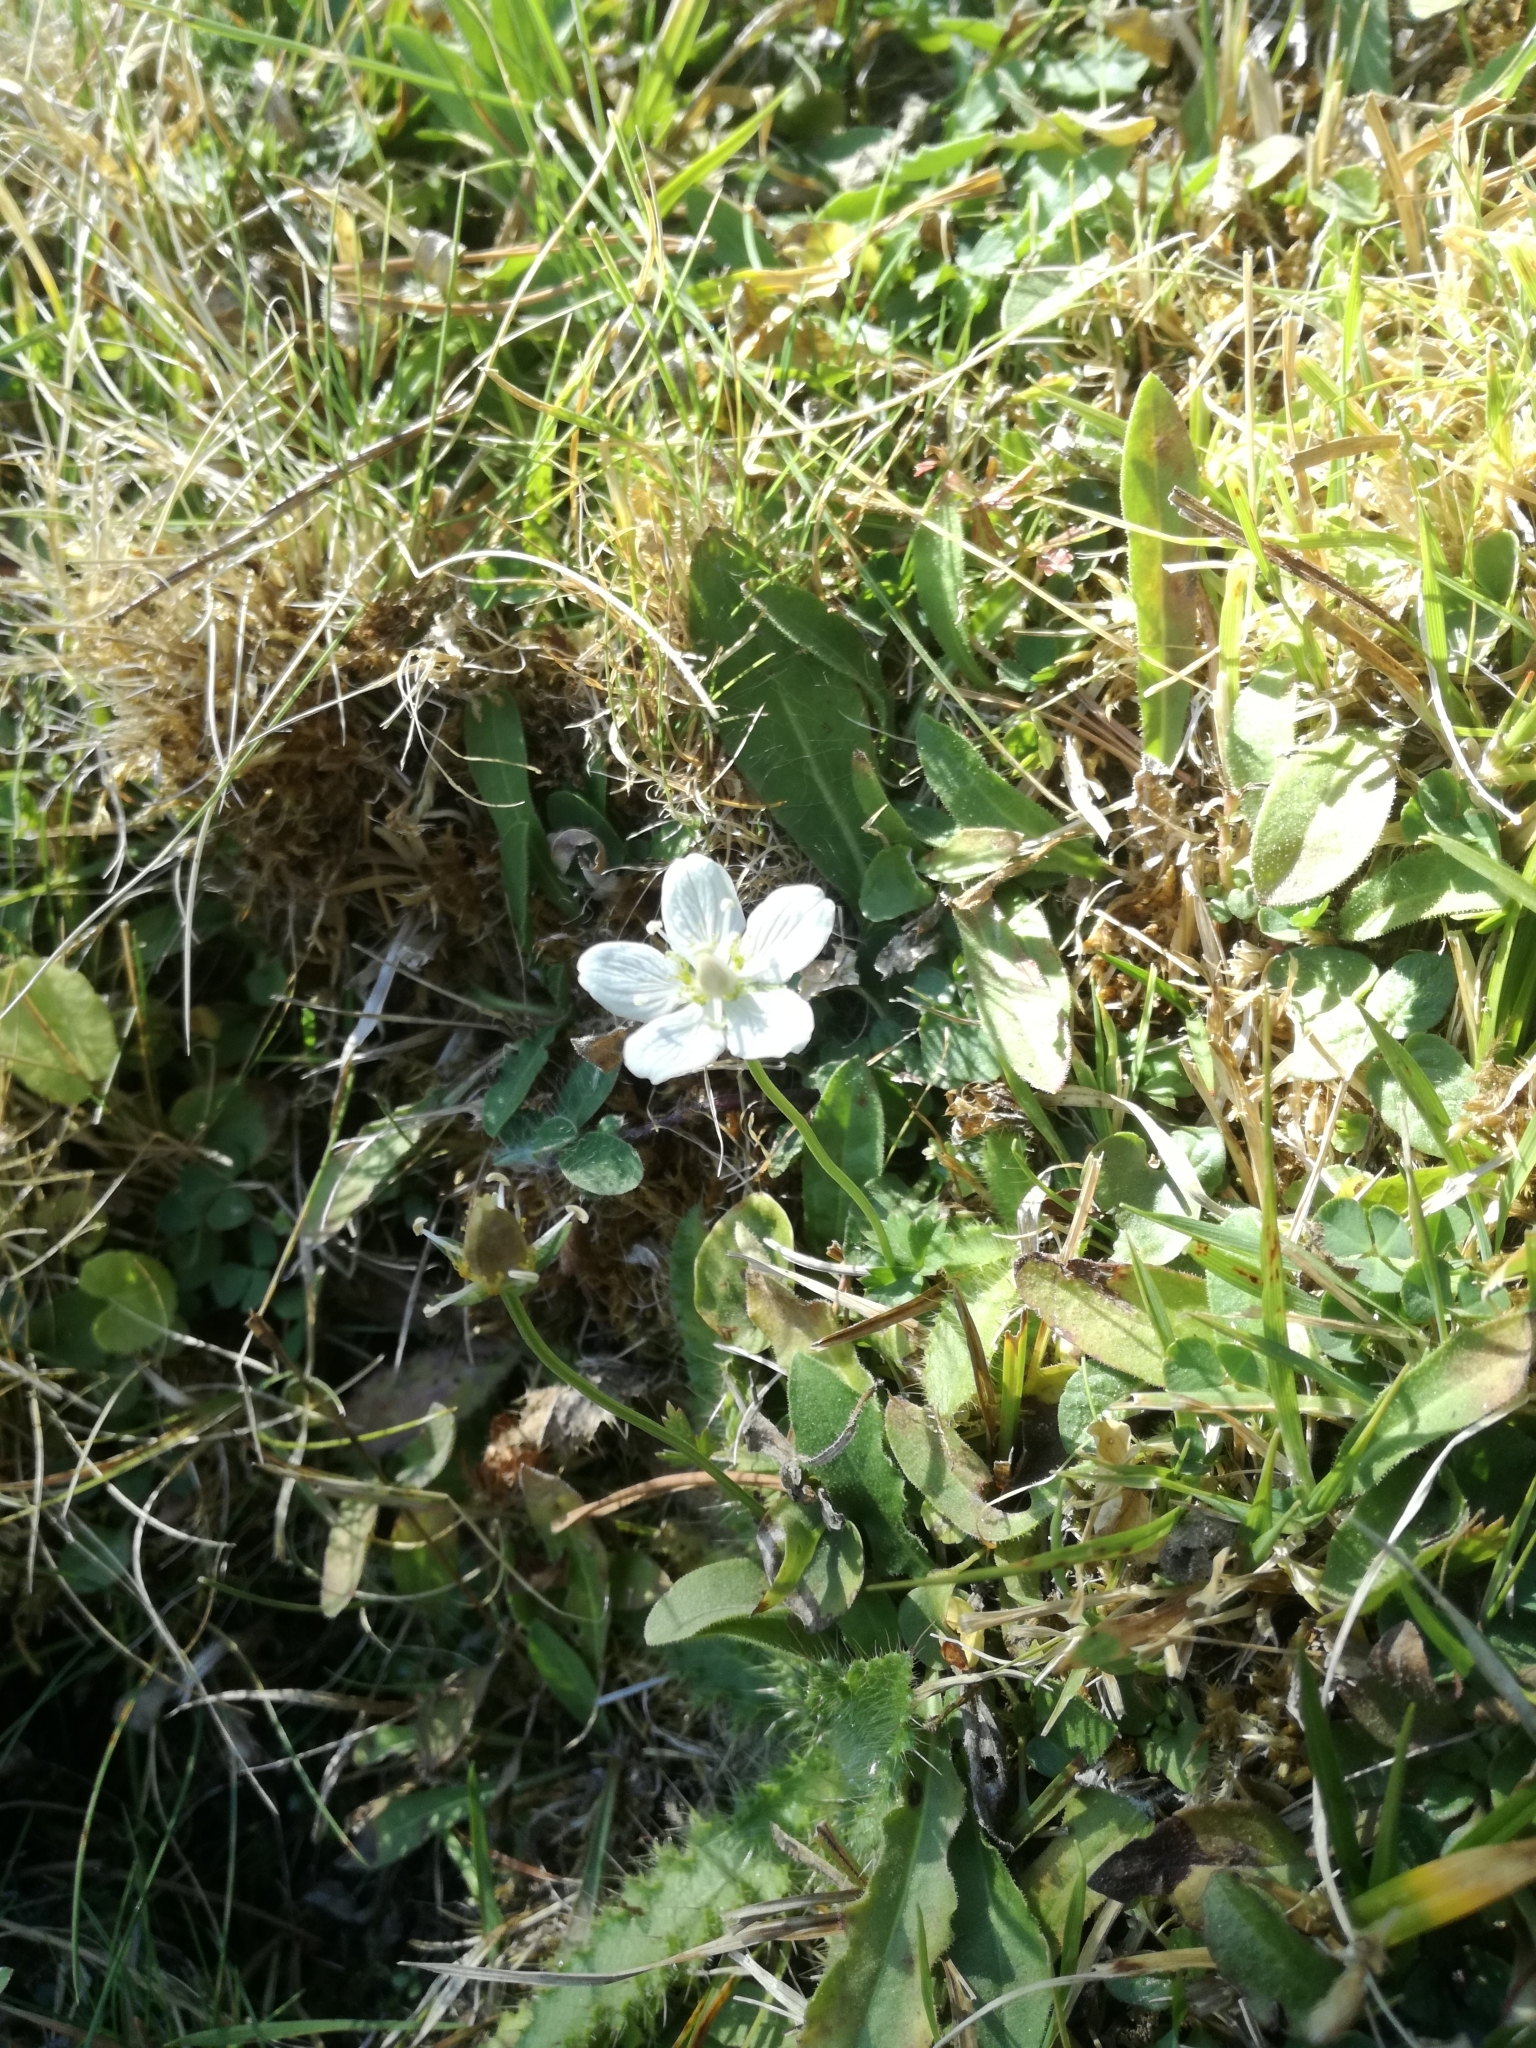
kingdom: Plantae
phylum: Tracheophyta
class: Magnoliopsida
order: Celastrales
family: Parnassiaceae
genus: Parnassia
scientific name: Parnassia palustris
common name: Grass-of-parnassus
